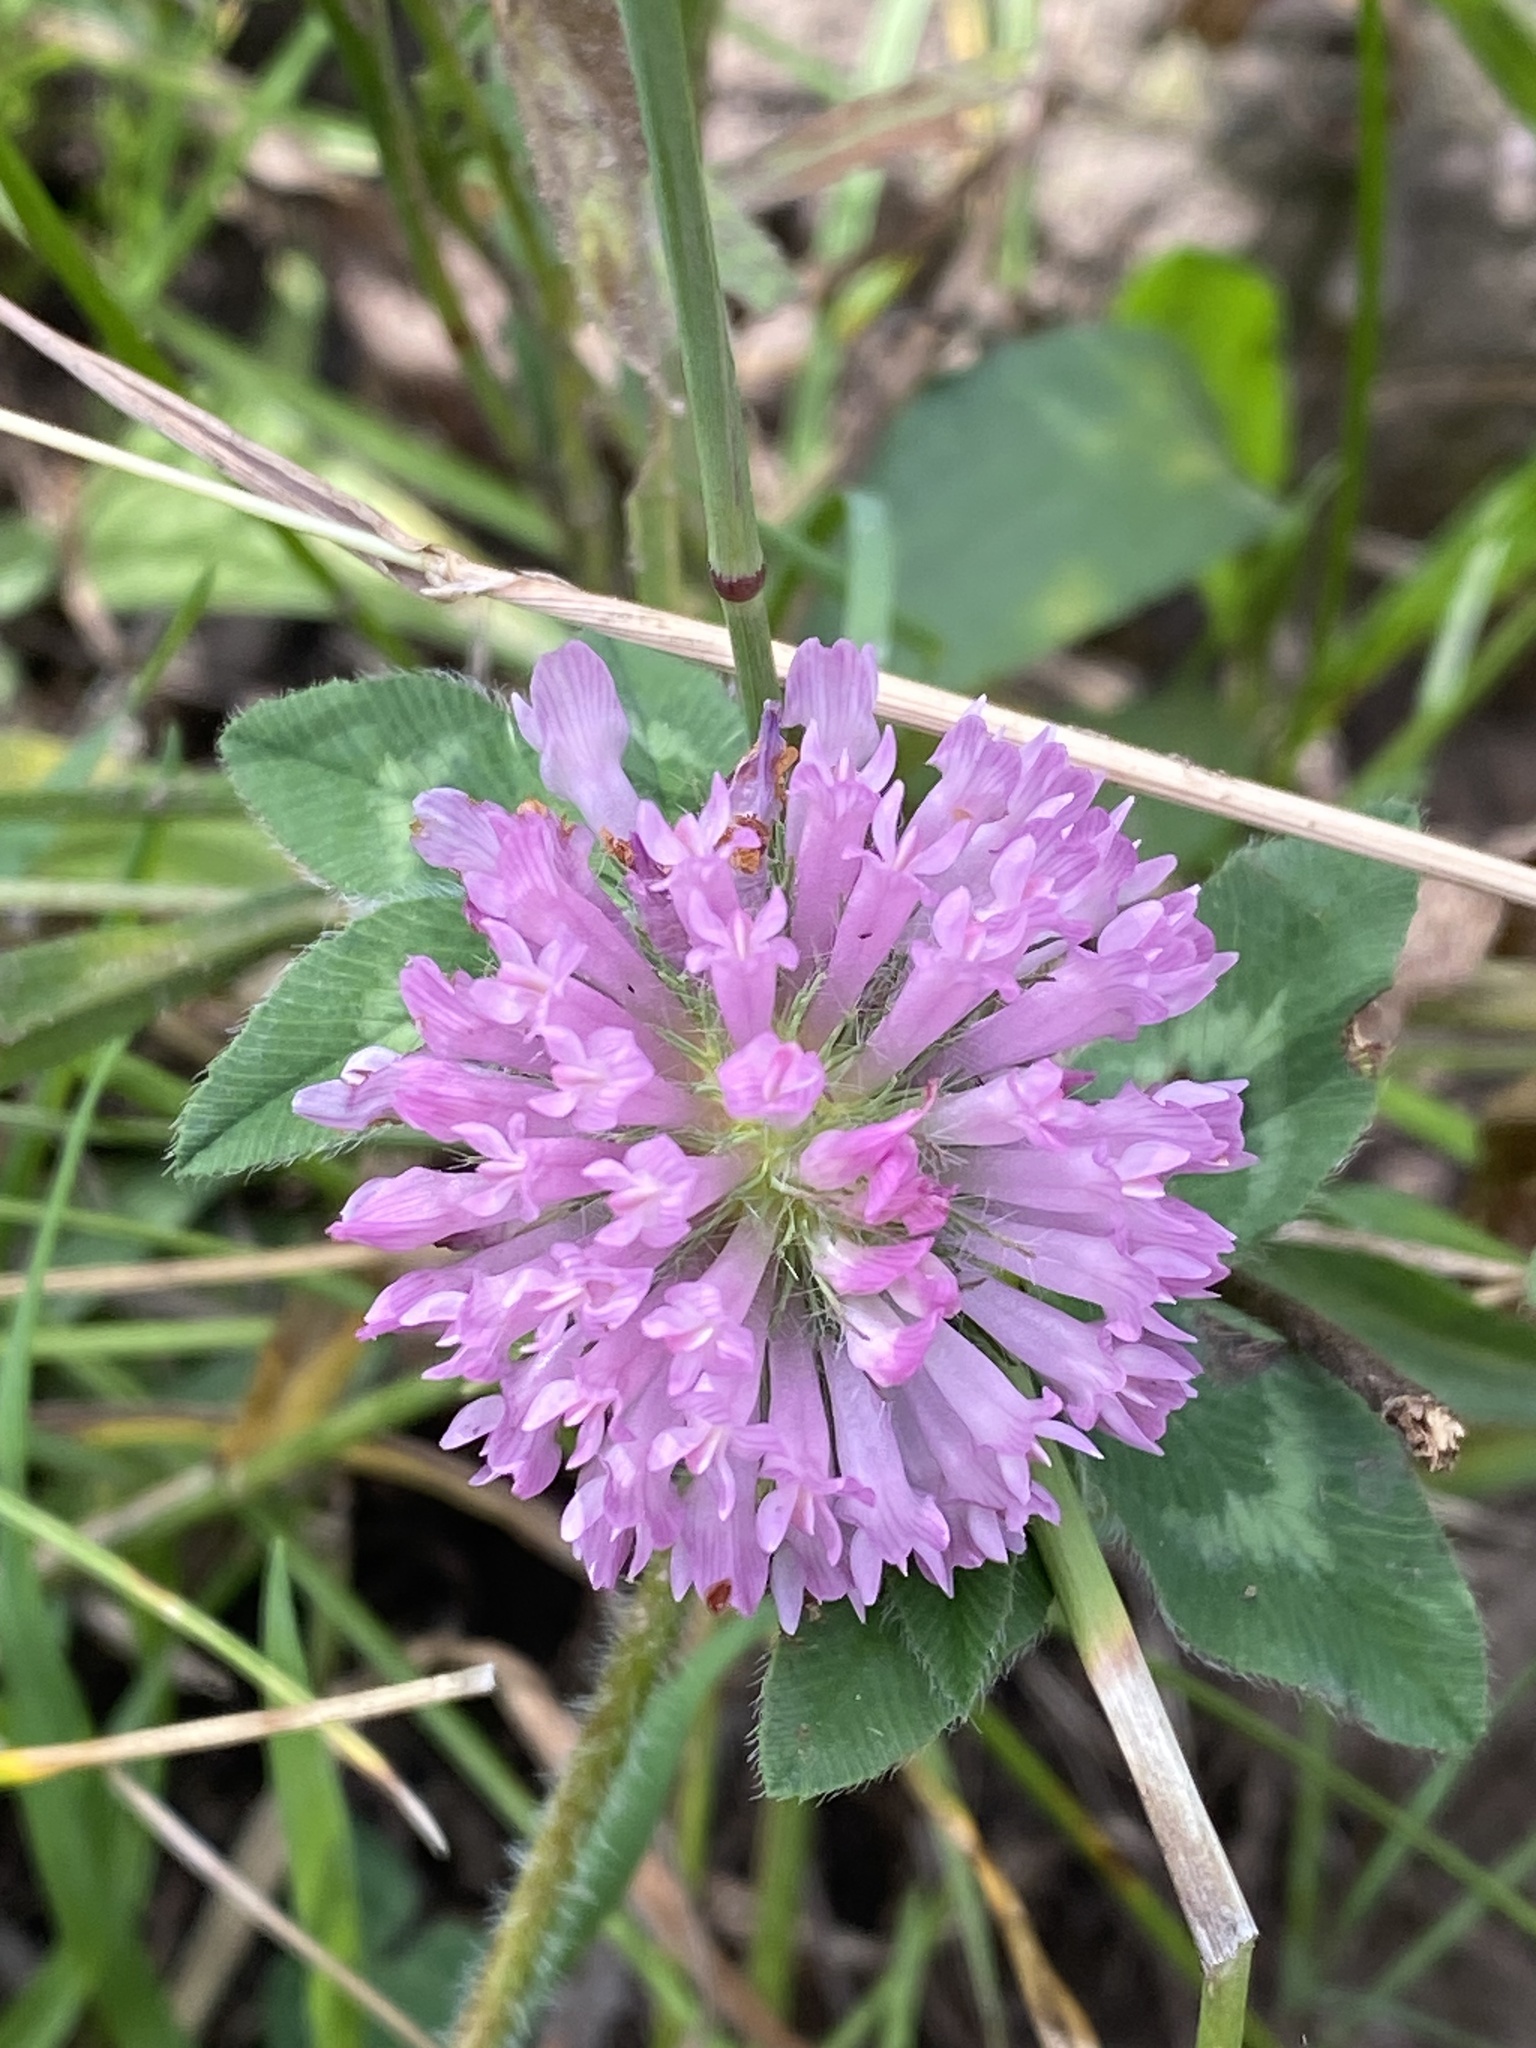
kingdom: Plantae
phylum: Tracheophyta
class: Magnoliopsida
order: Fabales
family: Fabaceae
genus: Trifolium
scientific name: Trifolium pratense
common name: Red clover
